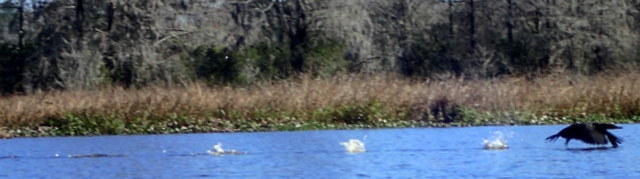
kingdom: Animalia
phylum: Chordata
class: Aves
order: Suliformes
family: Phalacrocoracidae
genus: Phalacrocorax
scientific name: Phalacrocorax auritus
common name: Double-crested cormorant
